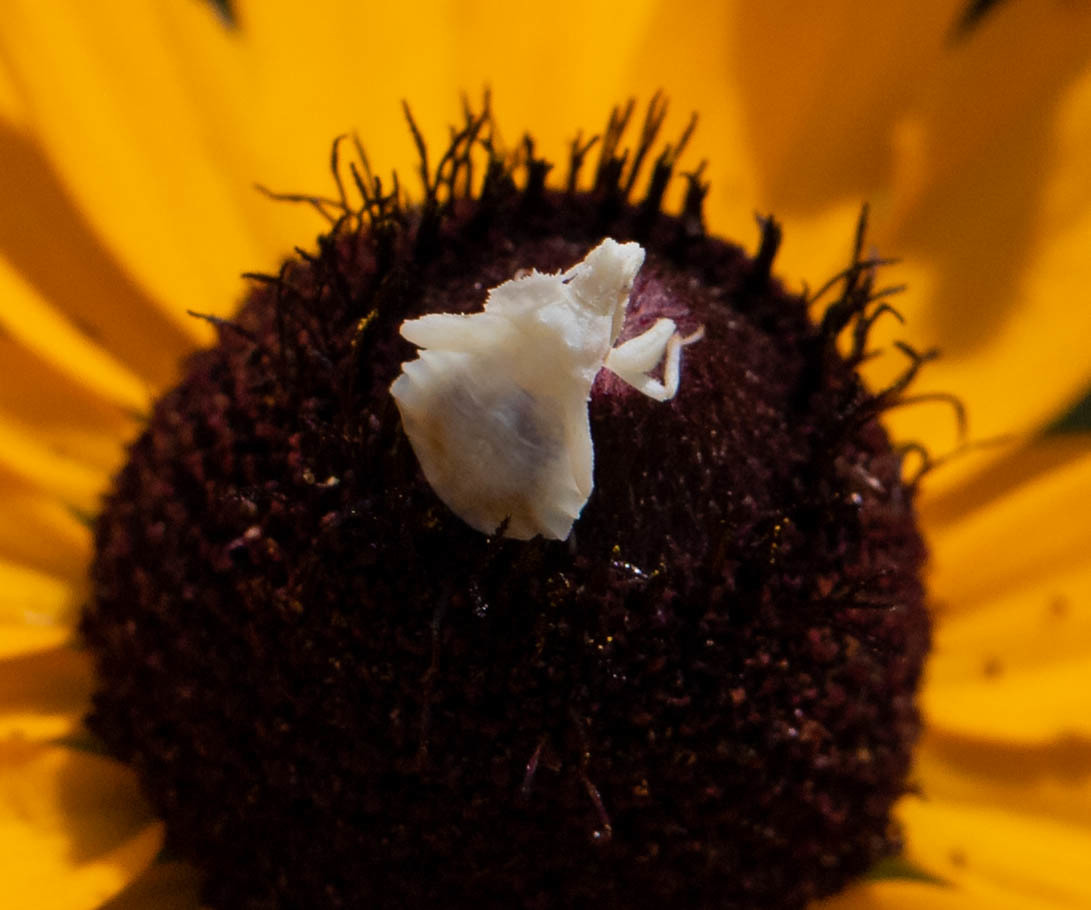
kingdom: Animalia
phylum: Arthropoda
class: Insecta
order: Hemiptera
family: Reduviidae
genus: Phymata
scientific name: Phymata fasciata
